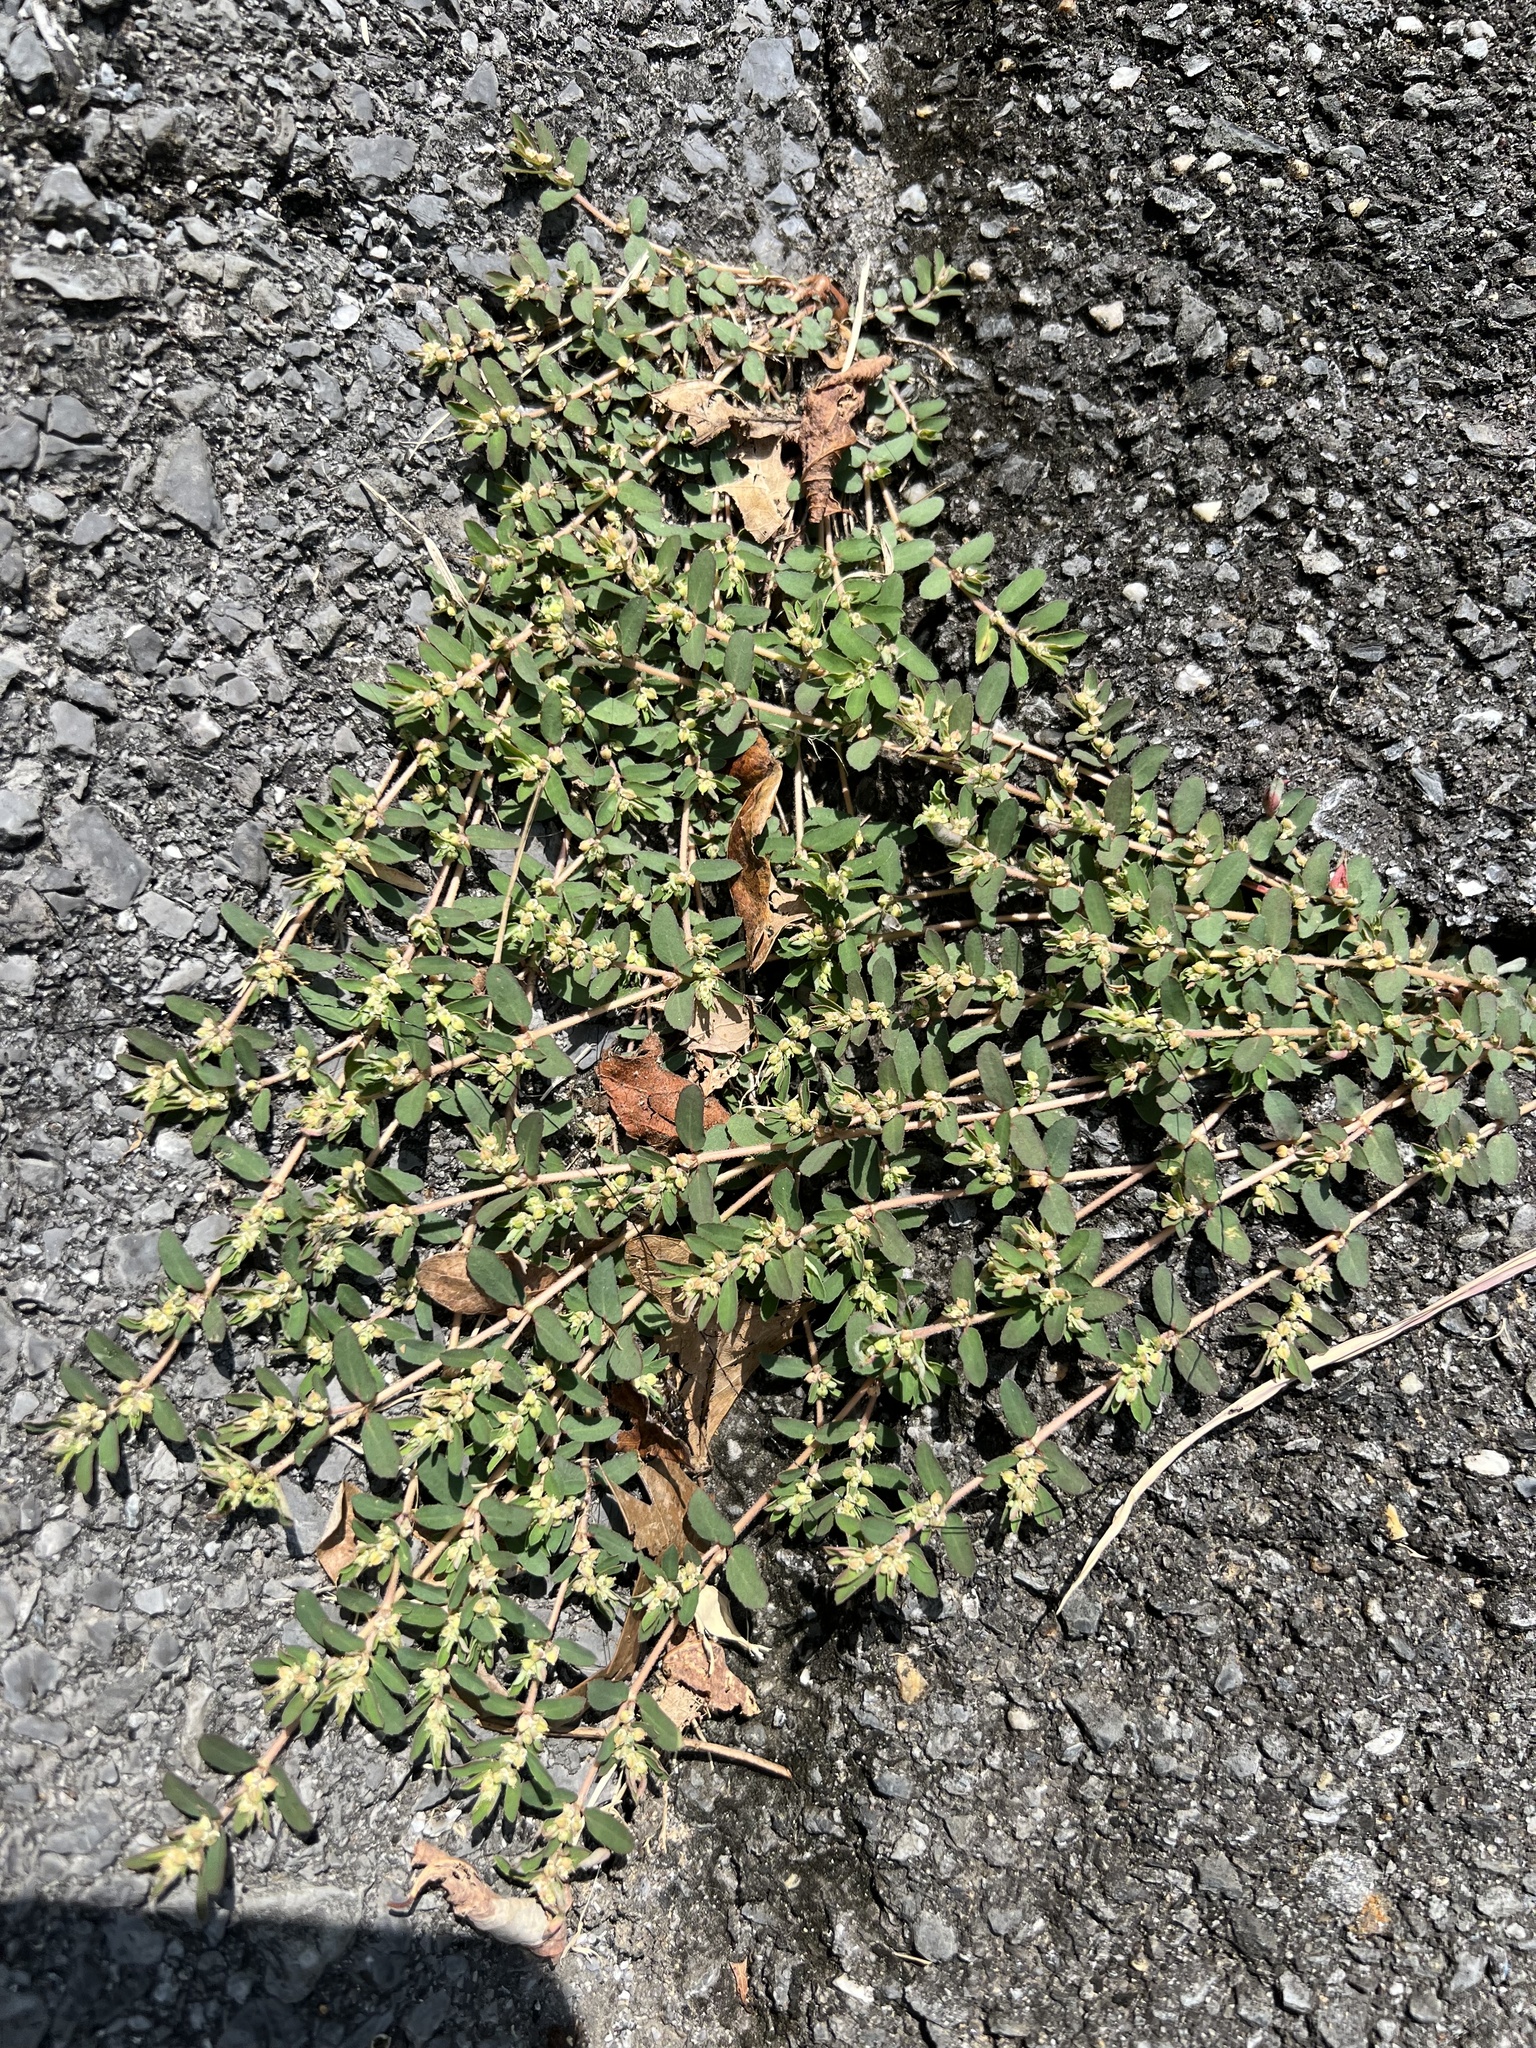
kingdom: Plantae
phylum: Tracheophyta
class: Magnoliopsida
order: Malpighiales
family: Euphorbiaceae
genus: Euphorbia
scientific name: Euphorbia maculata
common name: Spotted spurge
